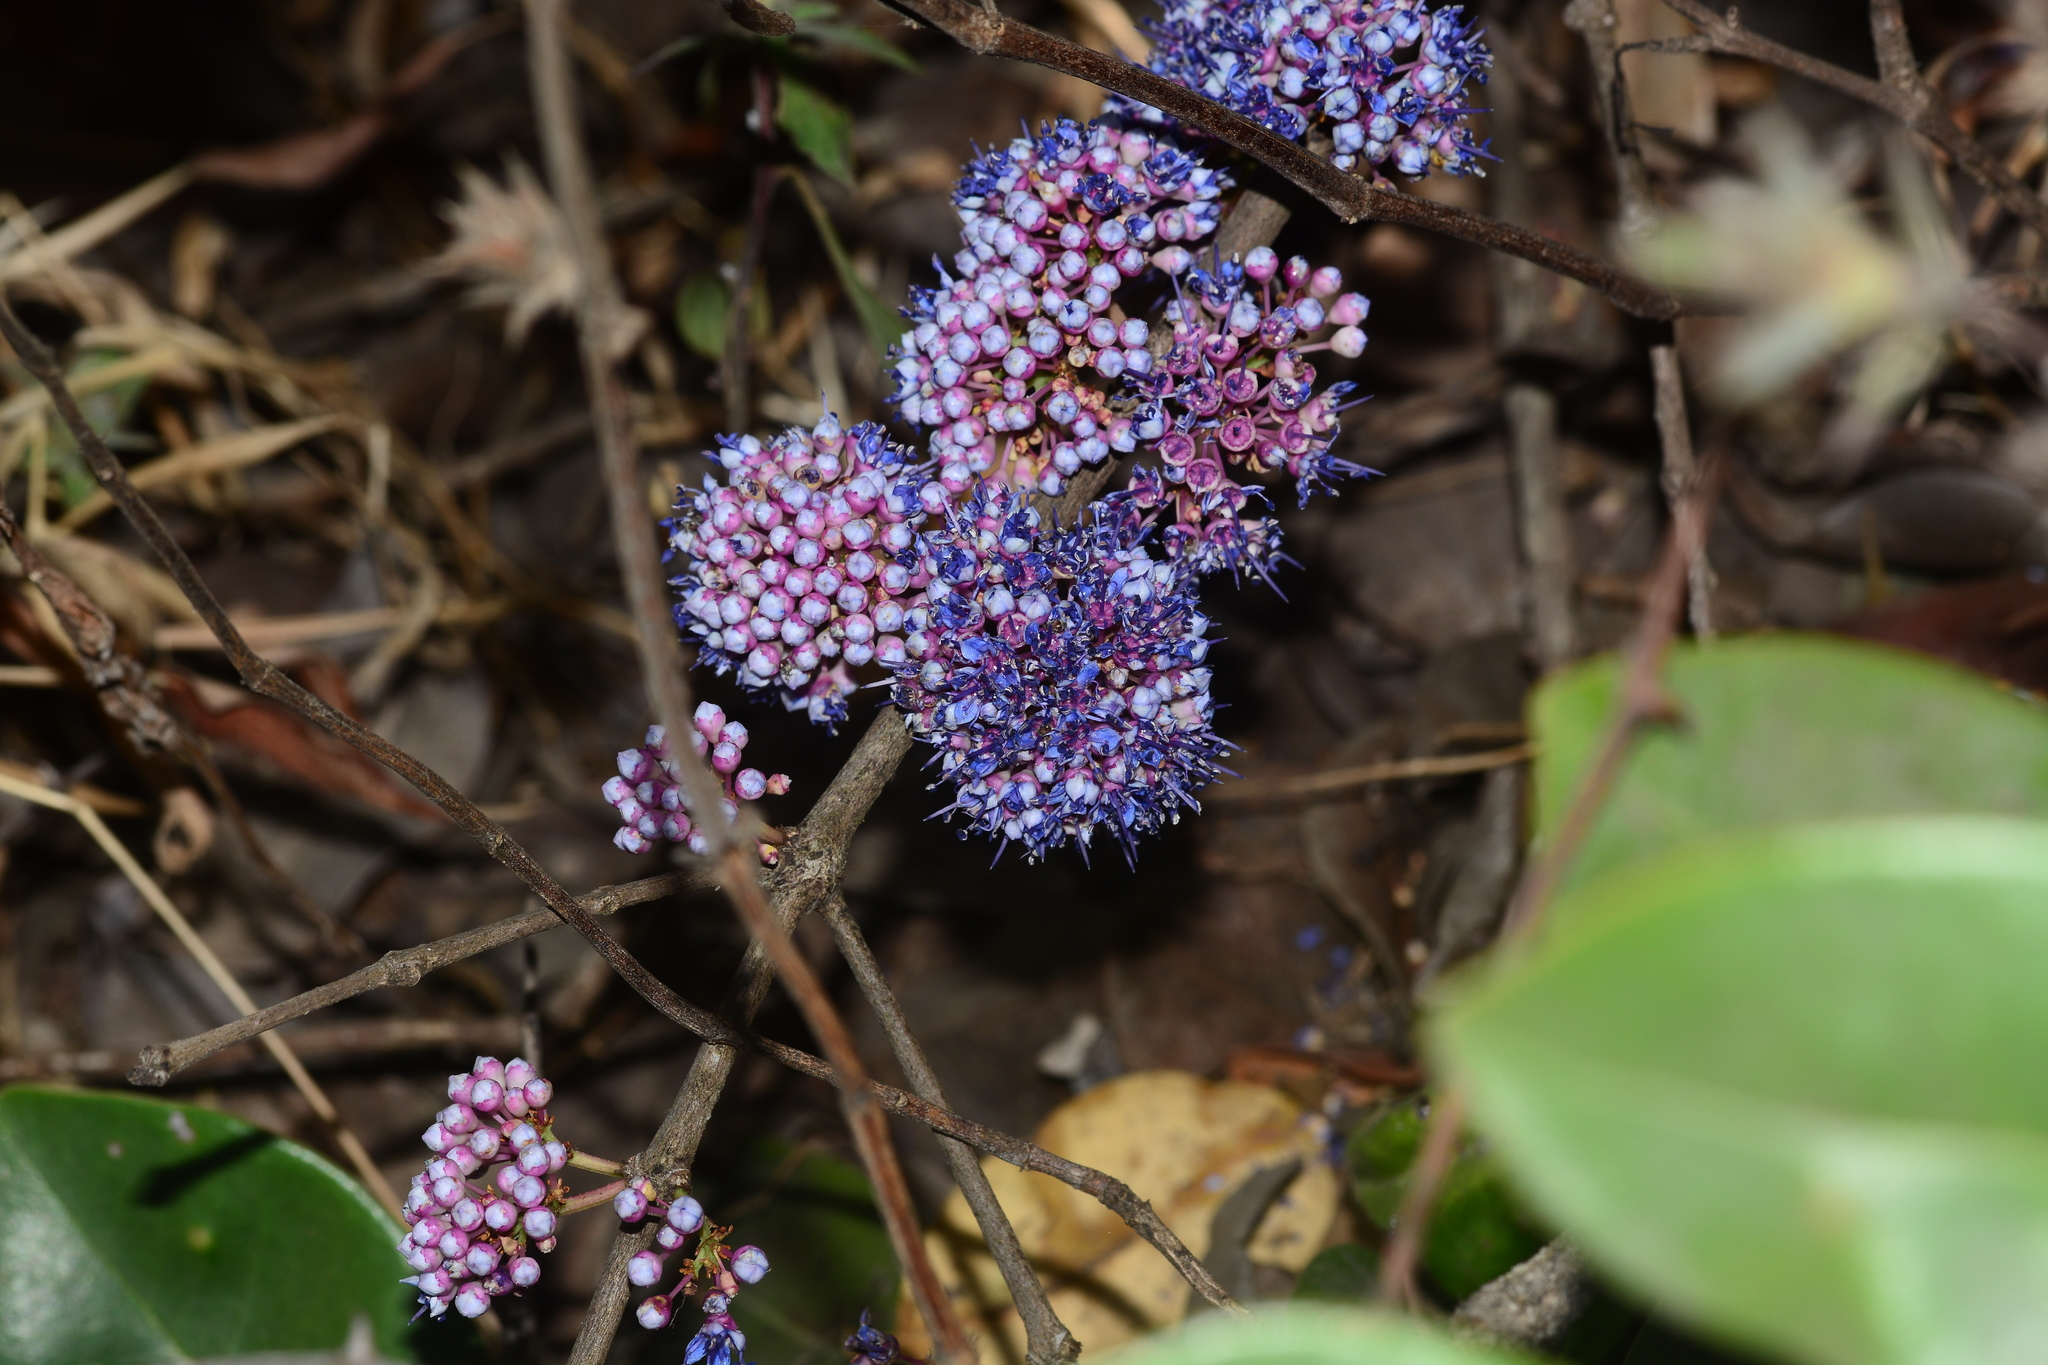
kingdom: Plantae
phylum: Tracheophyta
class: Magnoliopsida
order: Myrtales
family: Melastomataceae
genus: Memecylon
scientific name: Memecylon umbellatum
